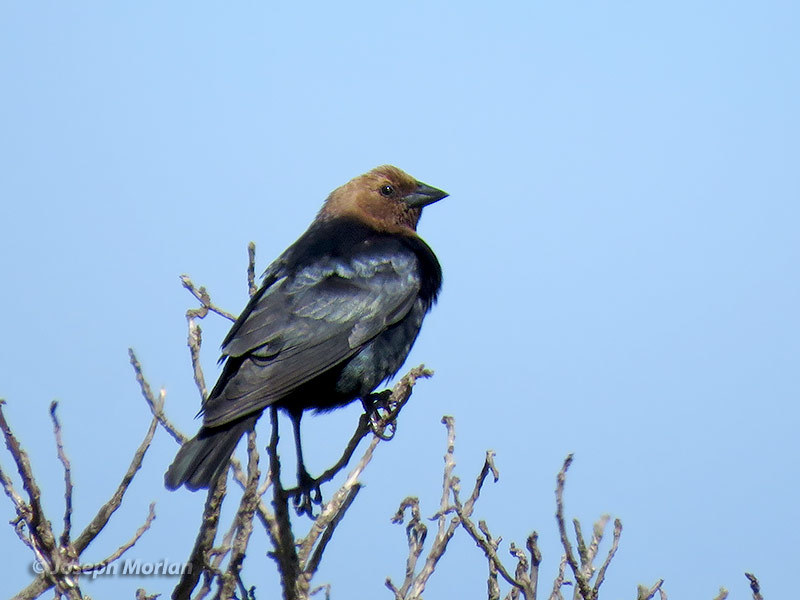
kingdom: Animalia
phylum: Chordata
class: Aves
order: Passeriformes
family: Icteridae
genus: Molothrus
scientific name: Molothrus ater
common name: Brown-headed cowbird
